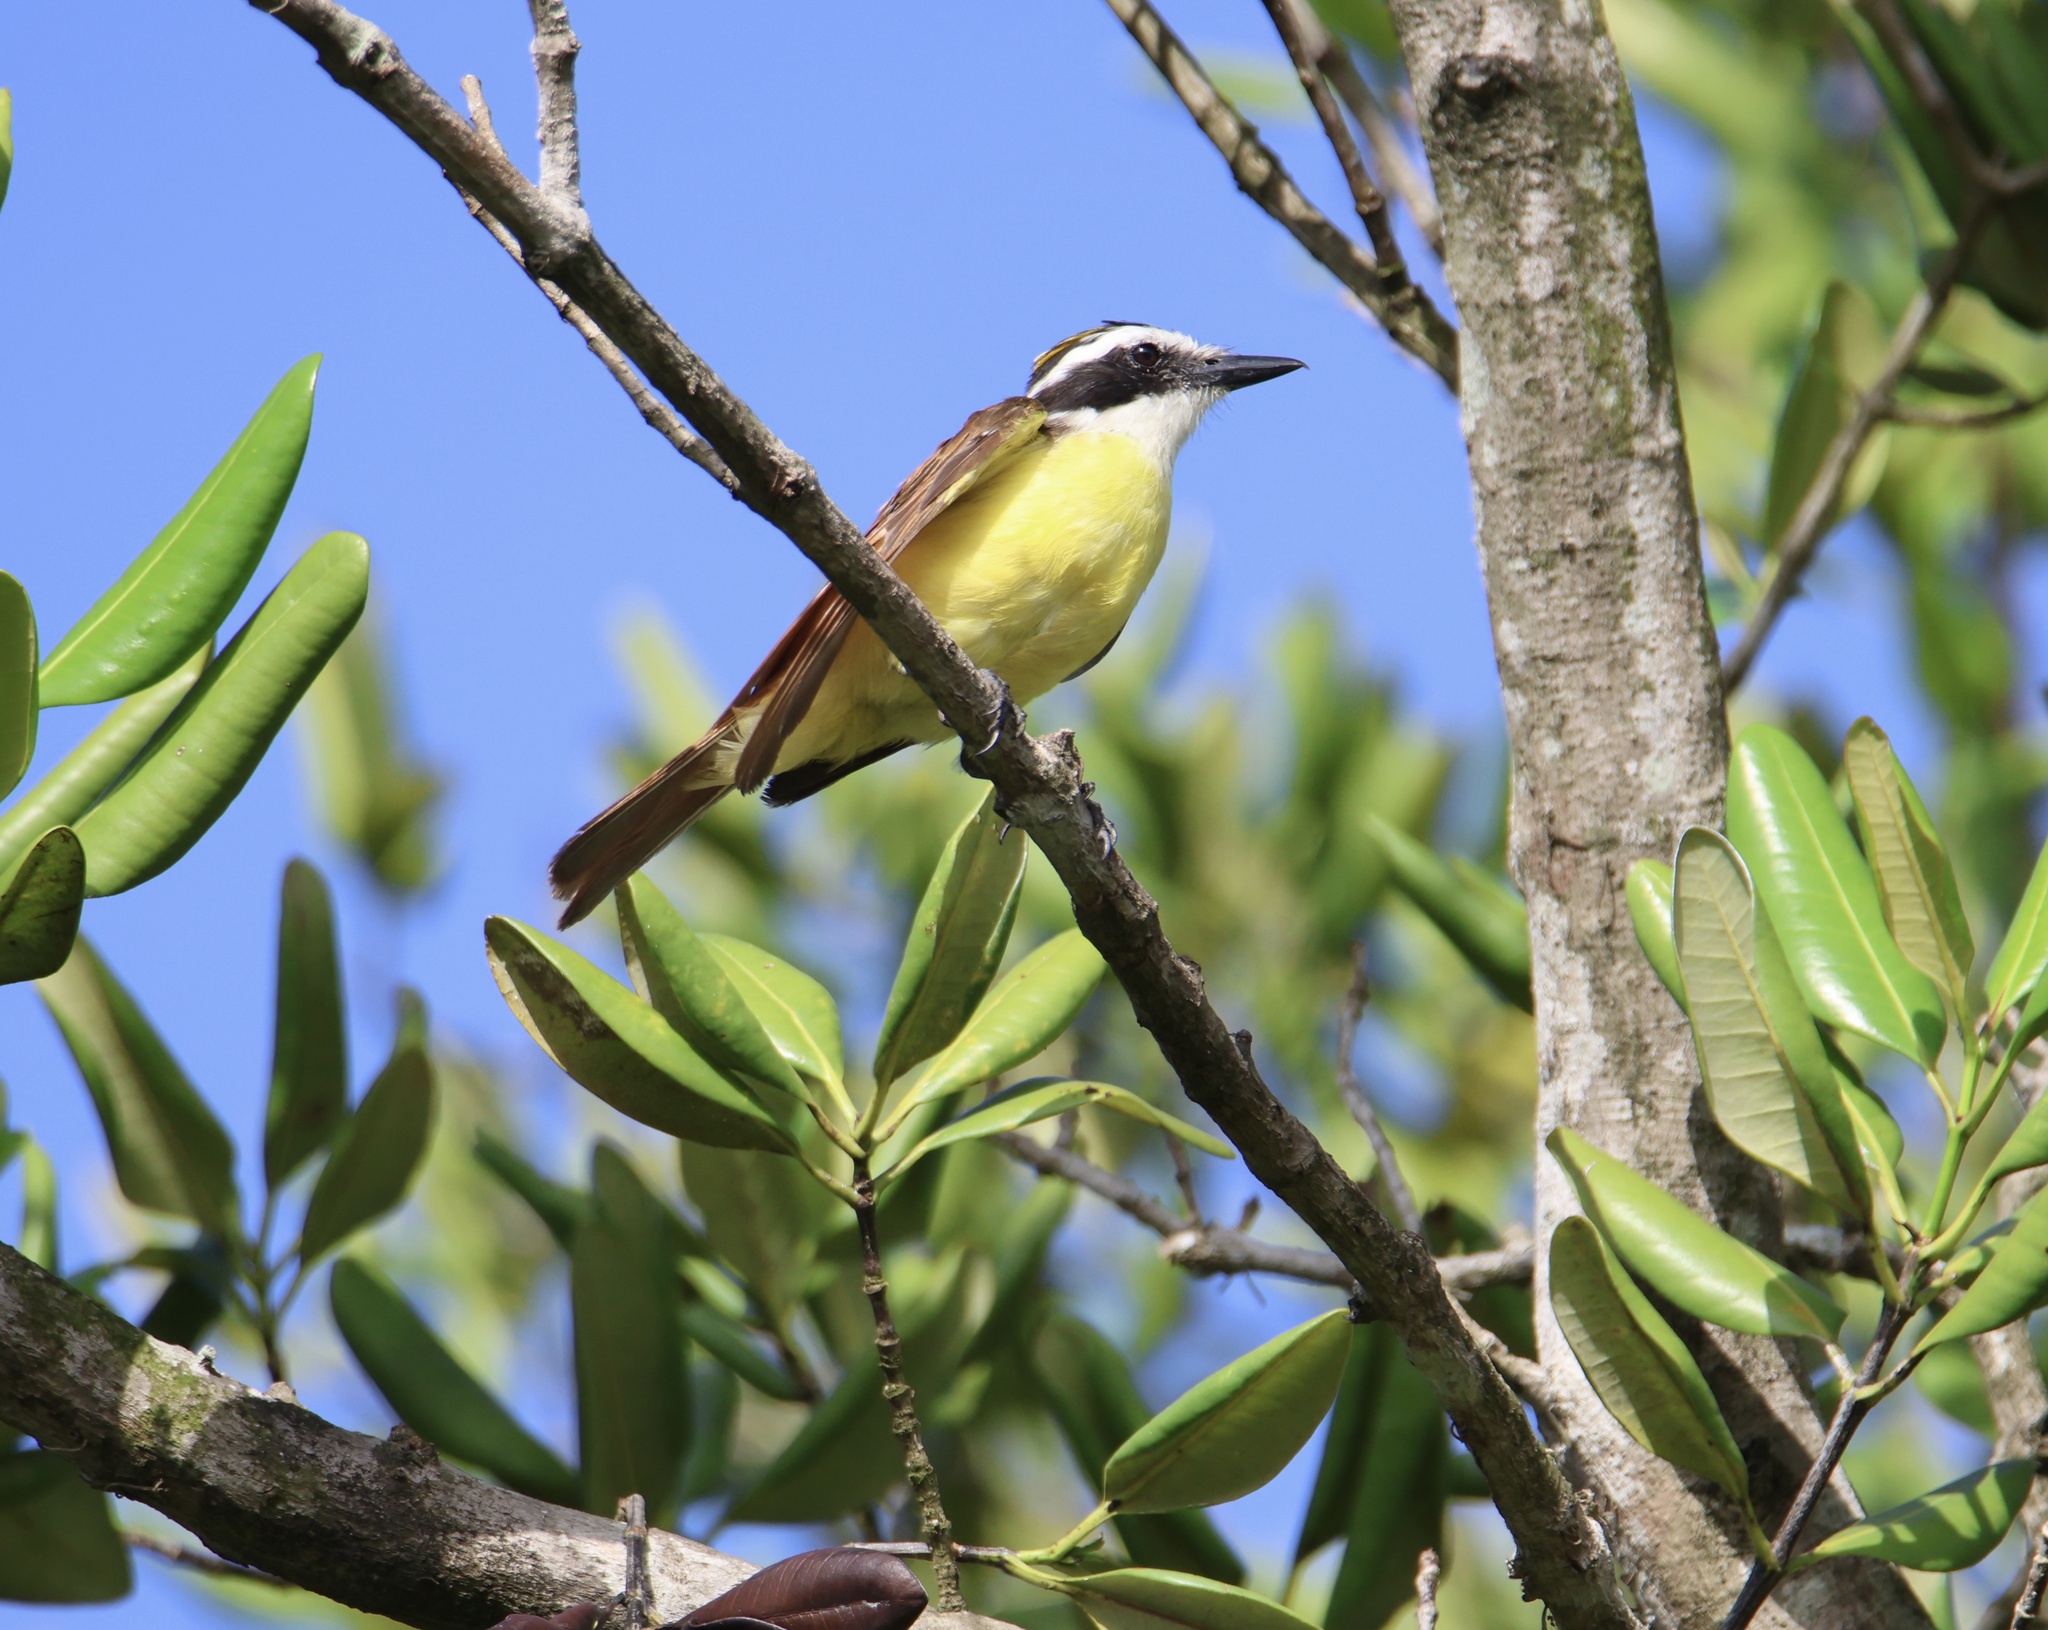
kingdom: Animalia
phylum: Chordata
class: Aves
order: Passeriformes
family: Tyrannidae
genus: Pitangus
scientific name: Pitangus sulphuratus
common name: Great kiskadee
